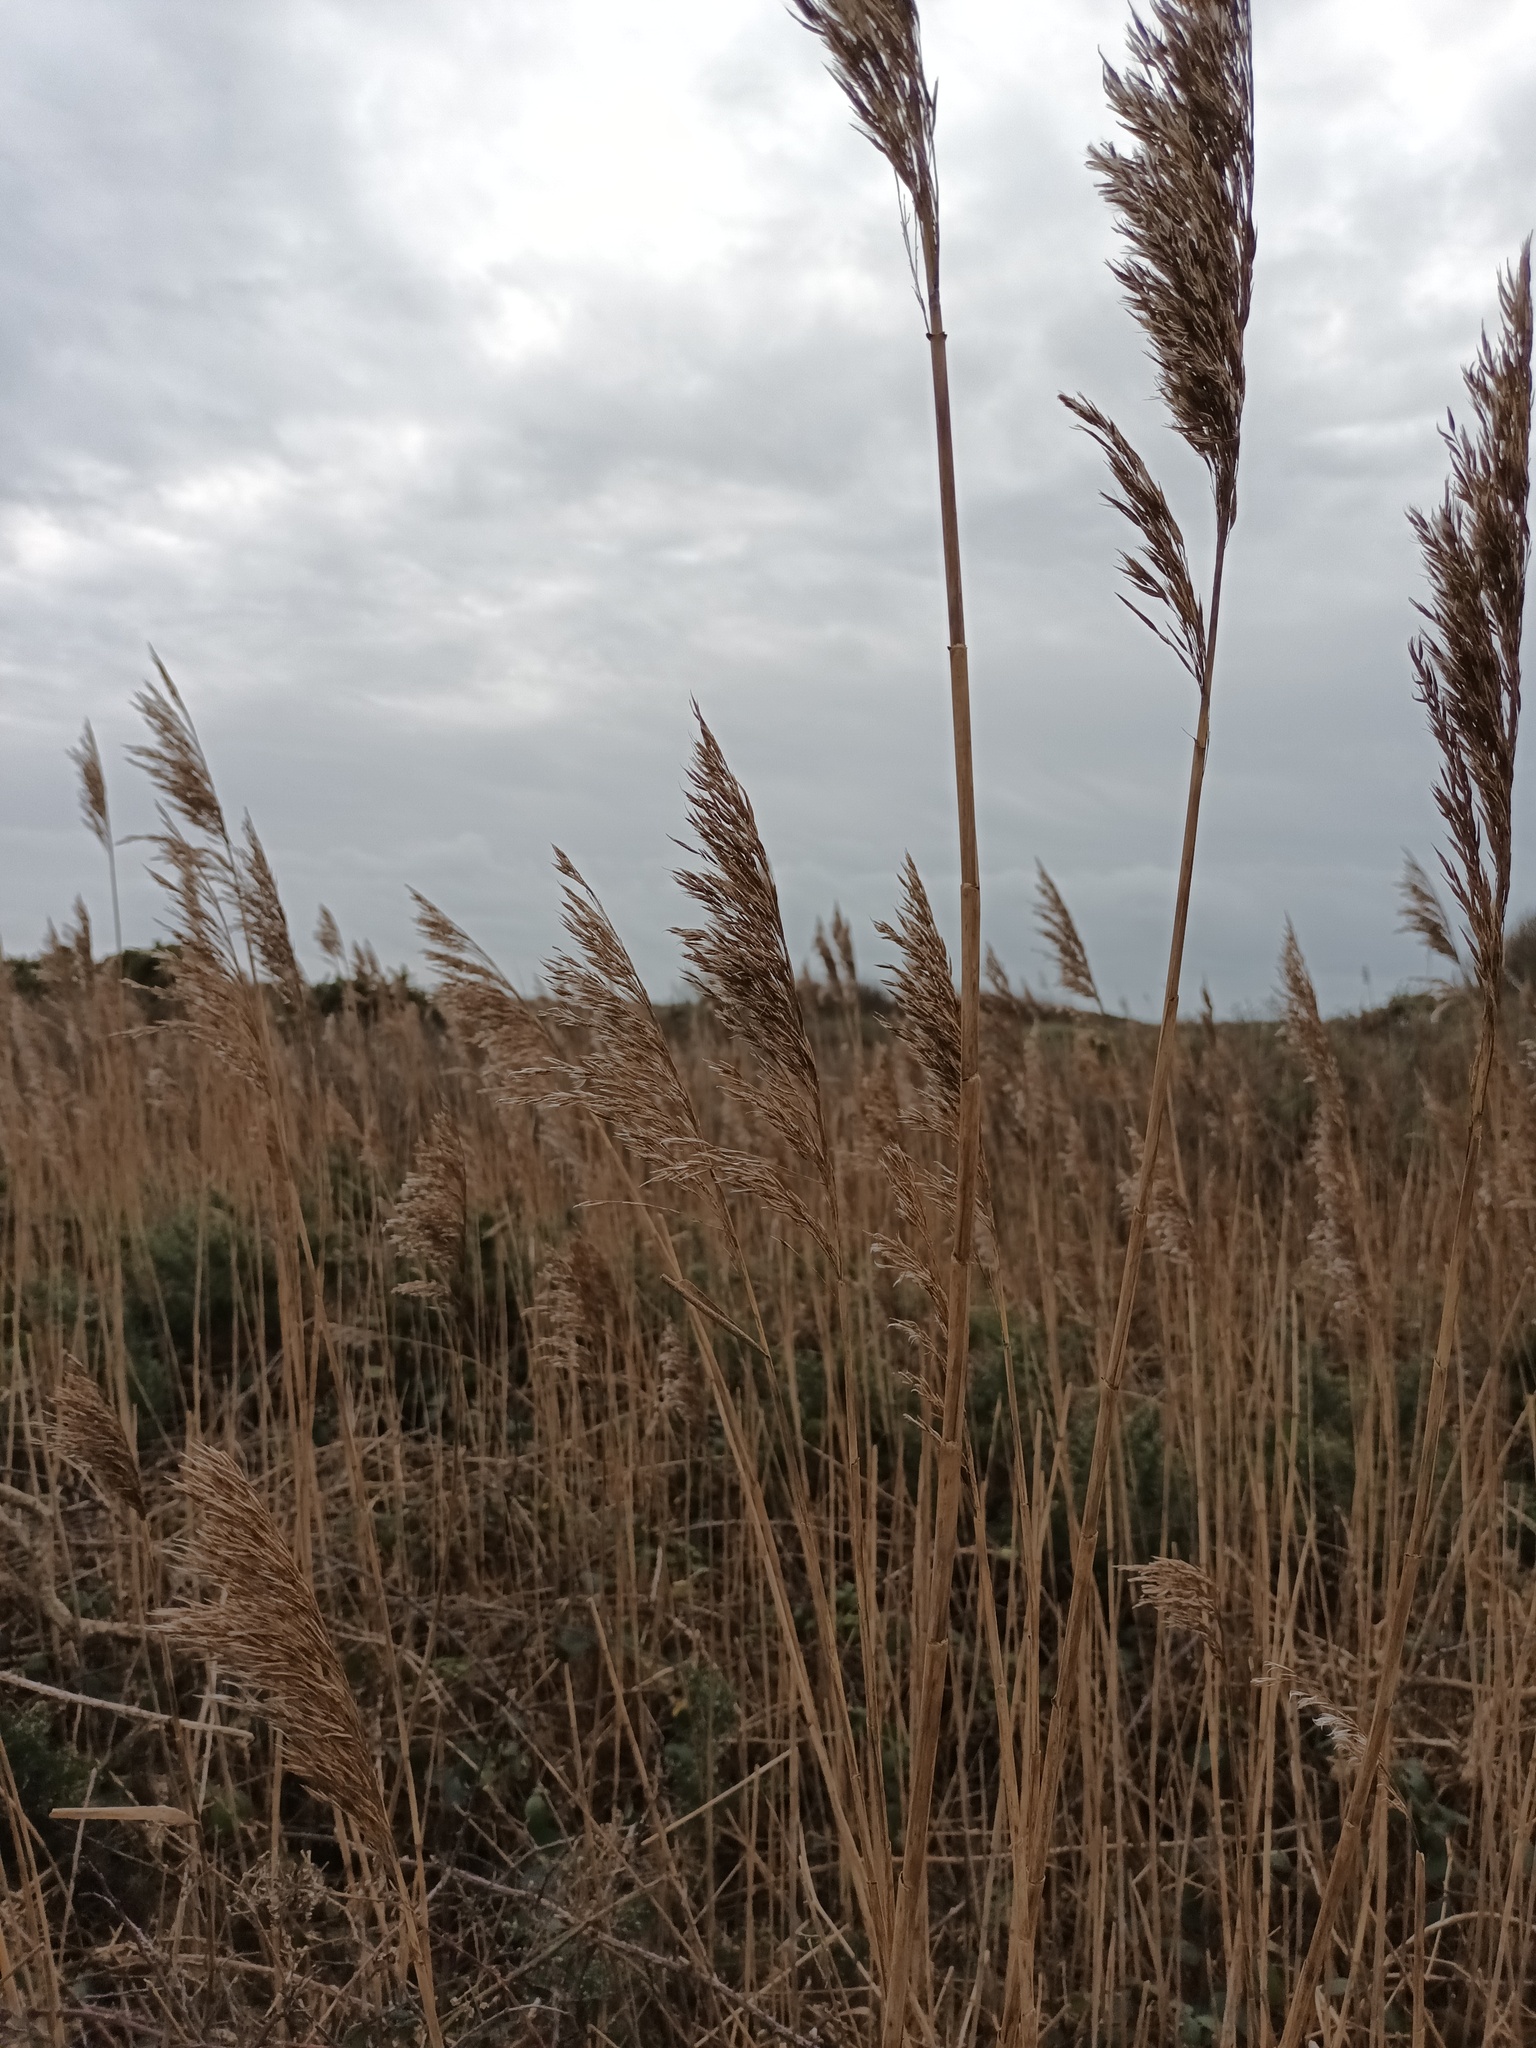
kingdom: Plantae
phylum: Tracheophyta
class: Liliopsida
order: Poales
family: Poaceae
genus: Phragmites
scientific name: Phragmites australis
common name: Common reed
